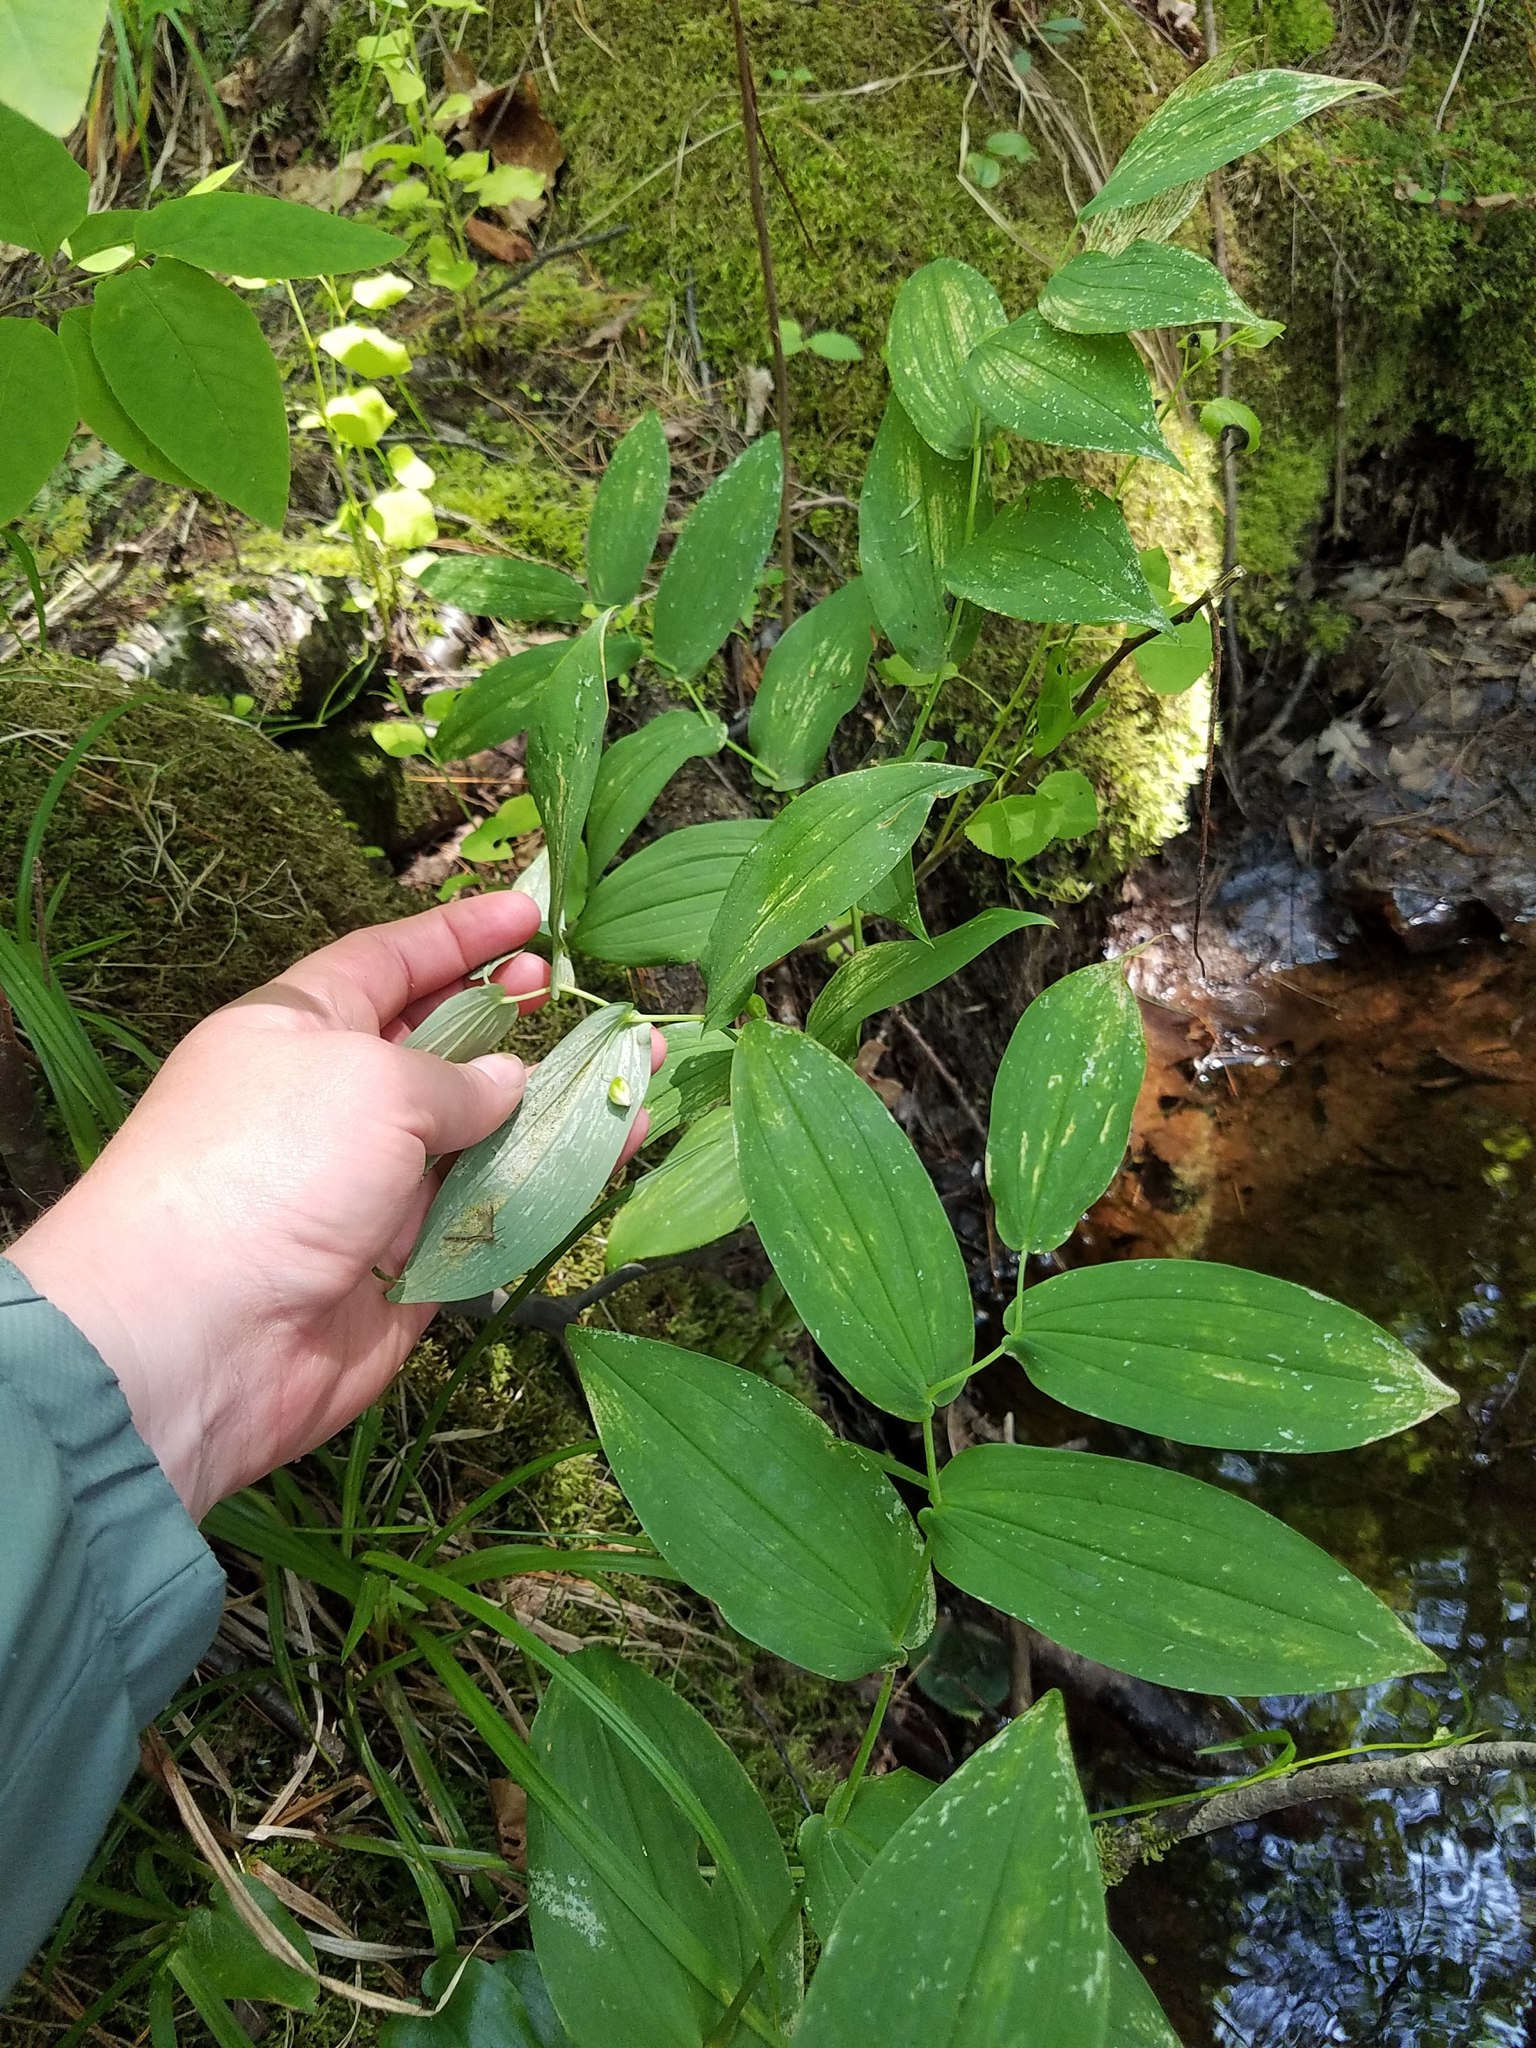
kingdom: Plantae
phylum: Tracheophyta
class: Liliopsida
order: Liliales
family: Liliaceae
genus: Streptopus
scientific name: Streptopus amplexifolius
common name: Clasp twisted stalk
